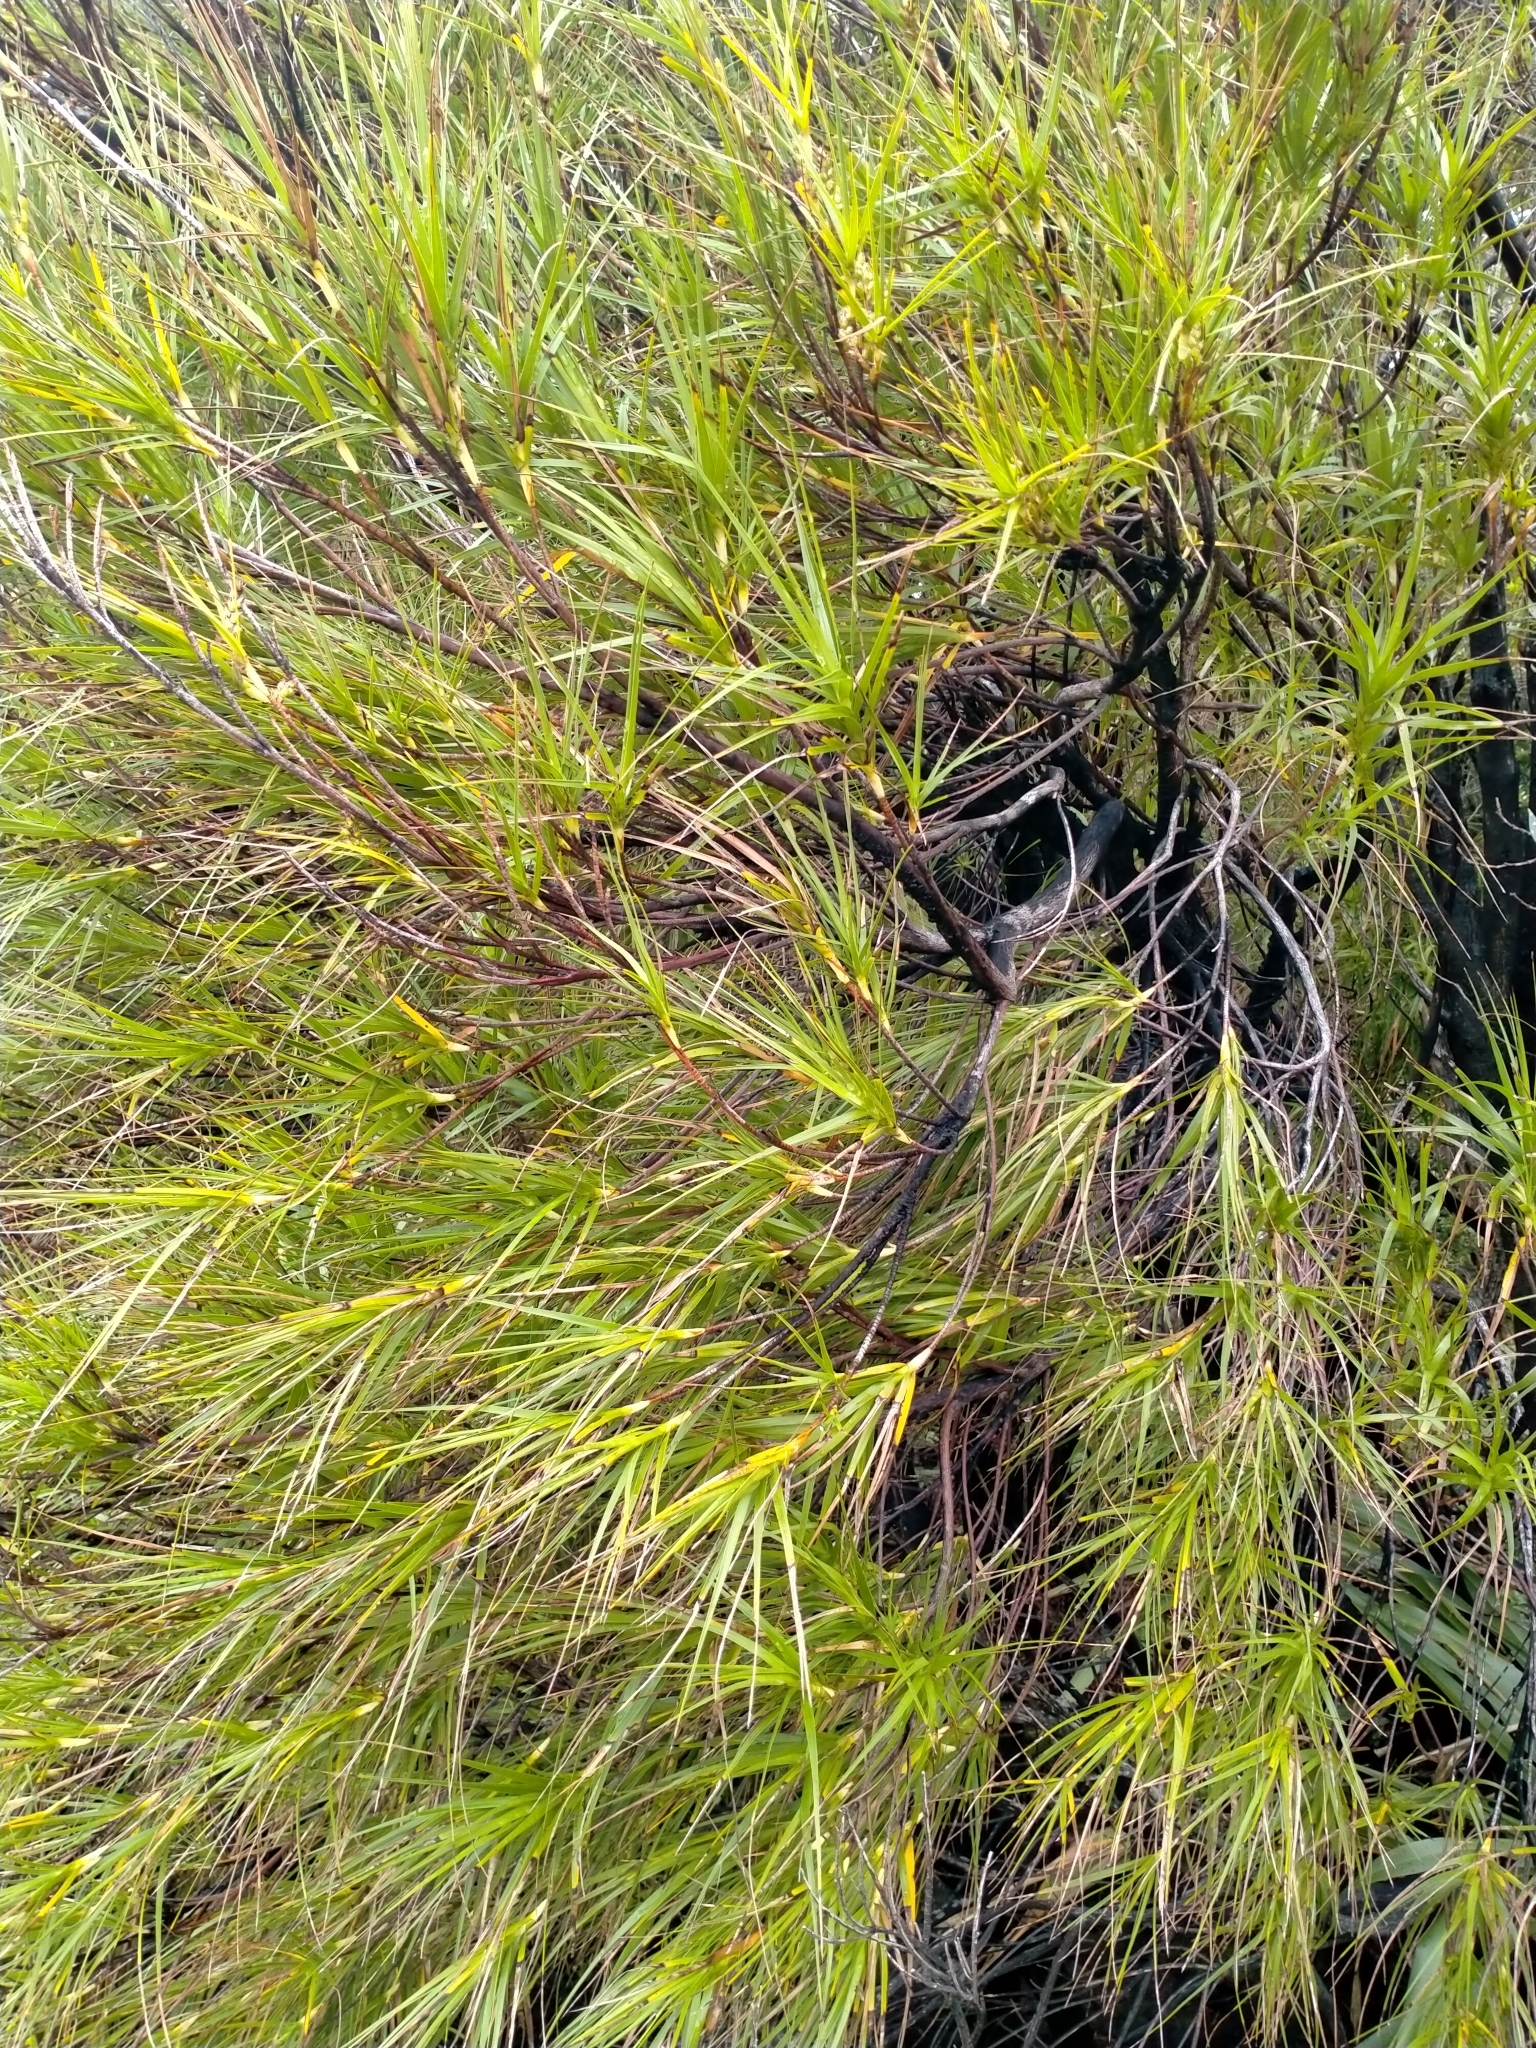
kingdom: Plantae
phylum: Tracheophyta
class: Magnoliopsida
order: Ericales
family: Ericaceae
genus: Dracophyllum
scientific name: Dracophyllum longifolium
